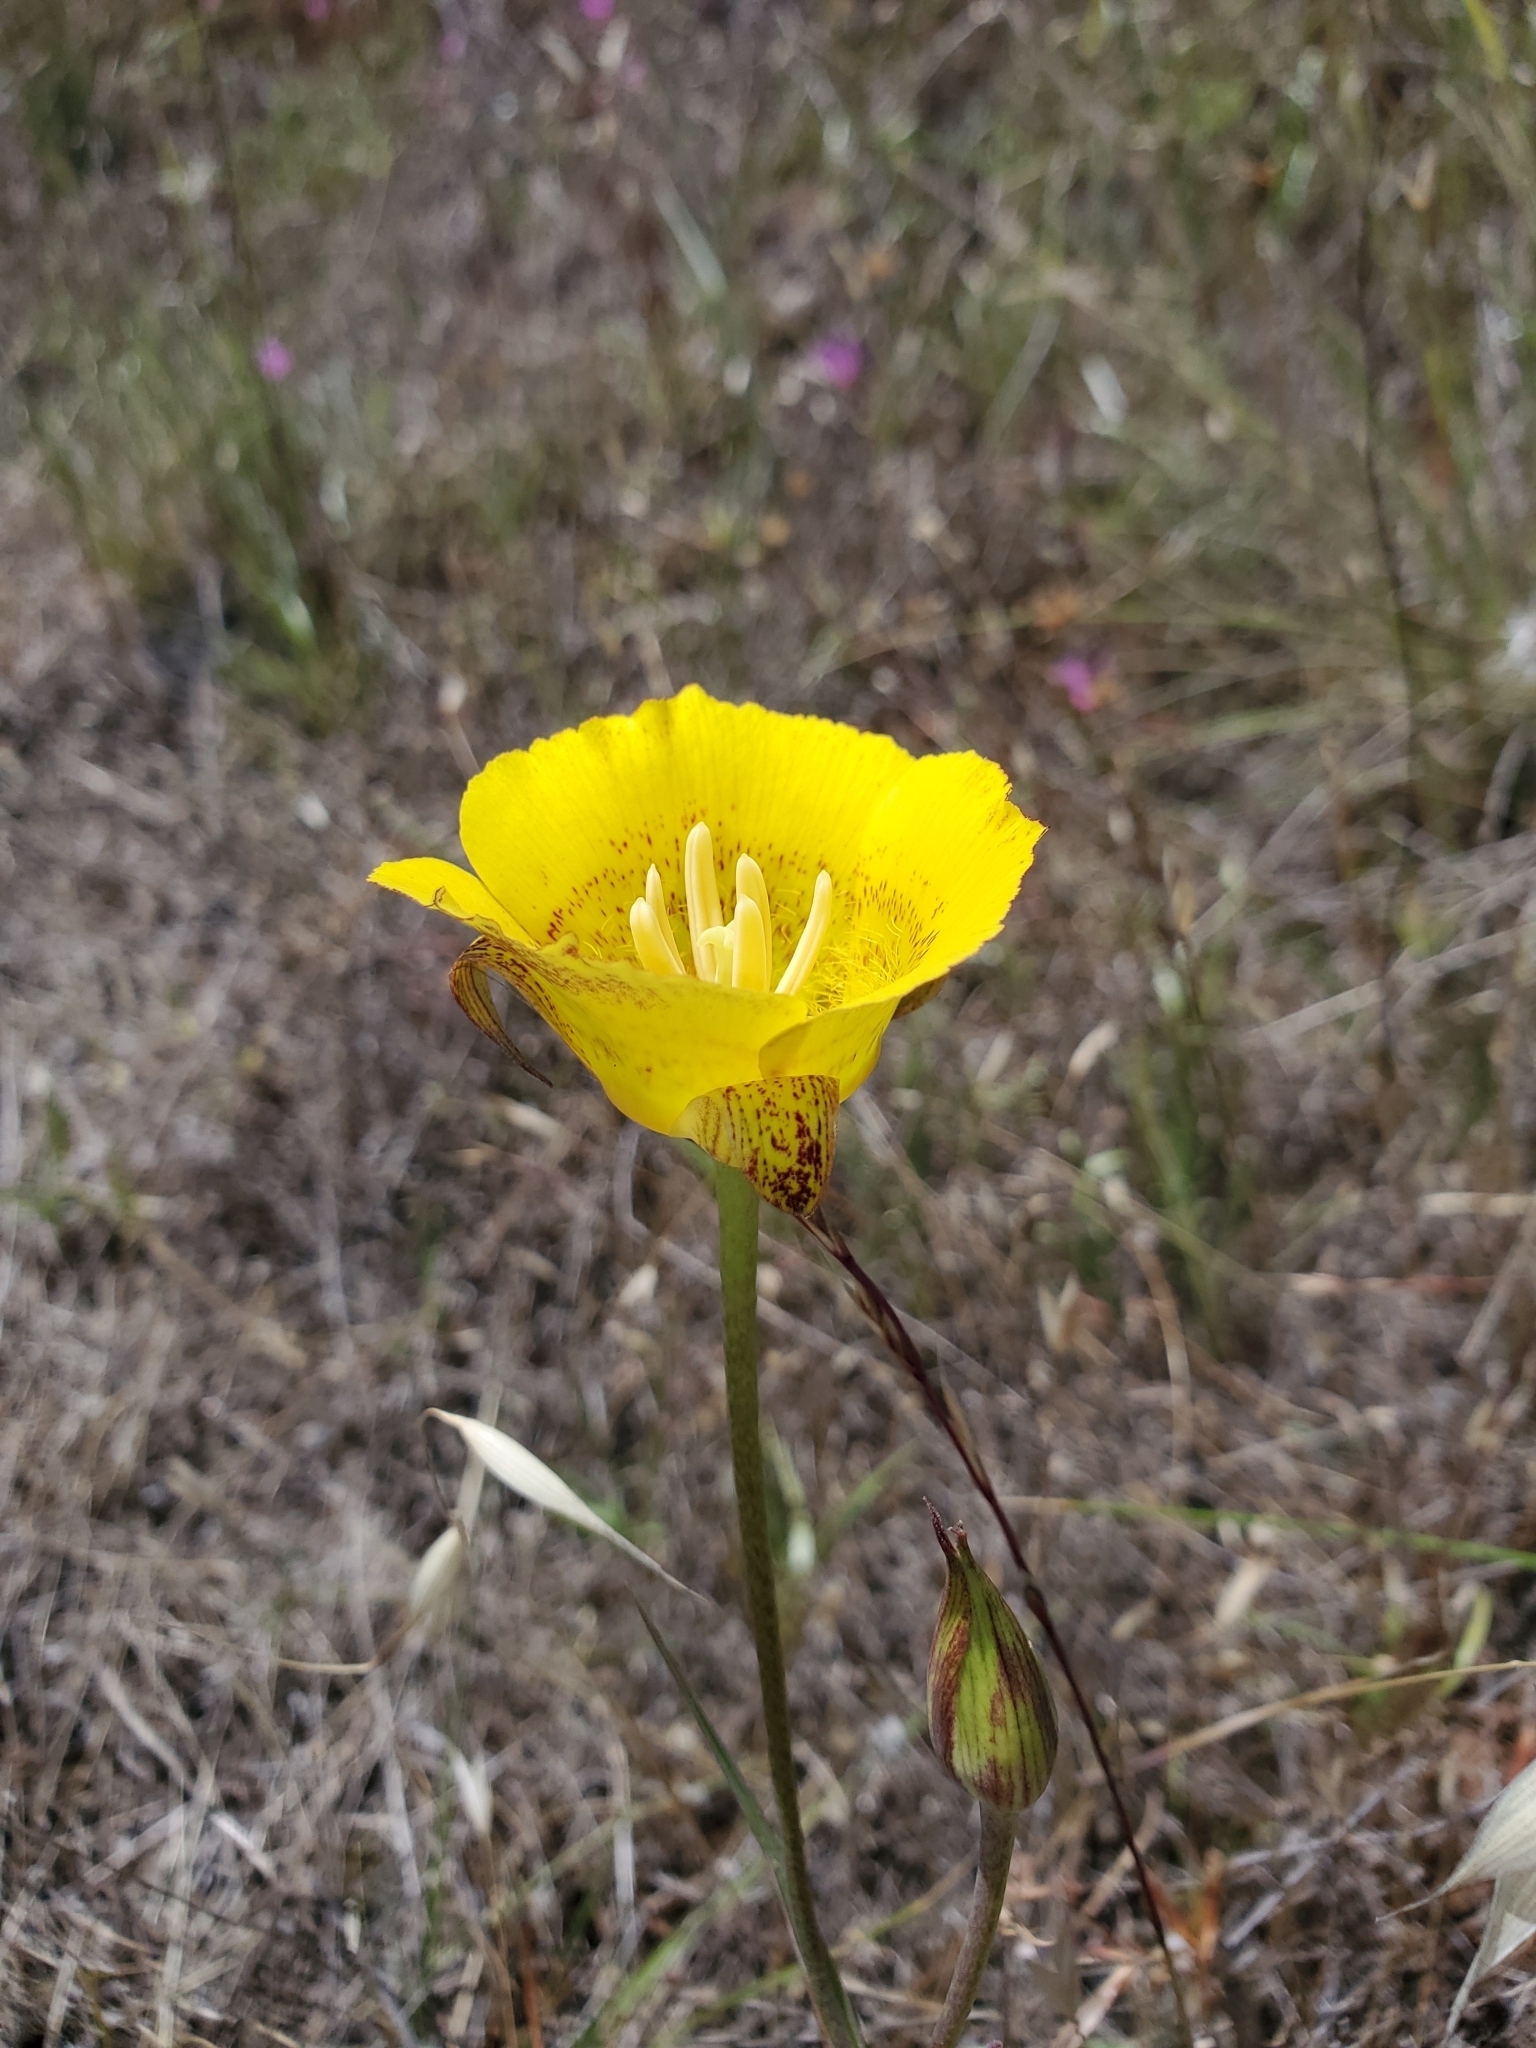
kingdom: Plantae
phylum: Tracheophyta
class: Liliopsida
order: Liliales
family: Liliaceae
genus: Calochortus
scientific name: Calochortus luteus
